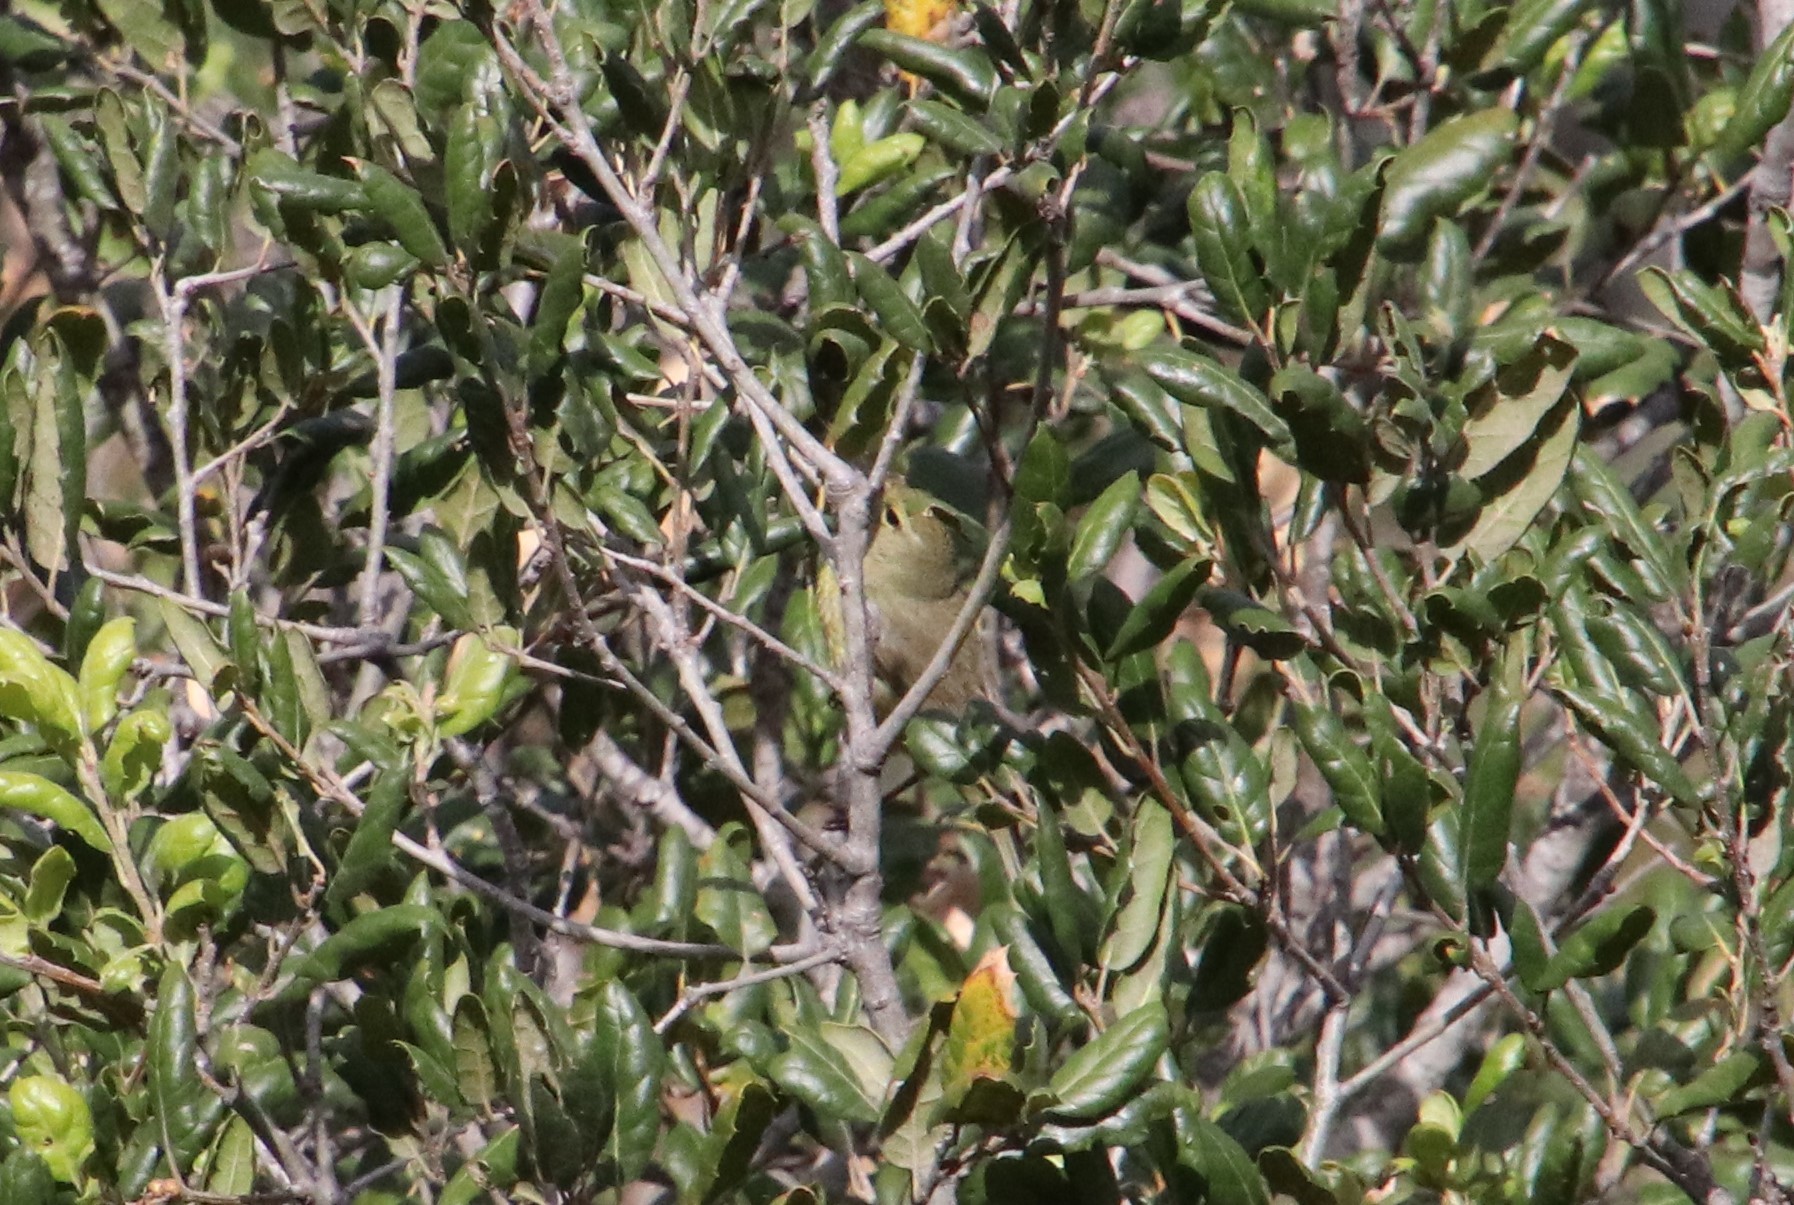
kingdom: Animalia
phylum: Chordata
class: Aves
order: Passeriformes
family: Parulidae
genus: Leiothlypis
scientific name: Leiothlypis celata
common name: Orange-crowned warbler
